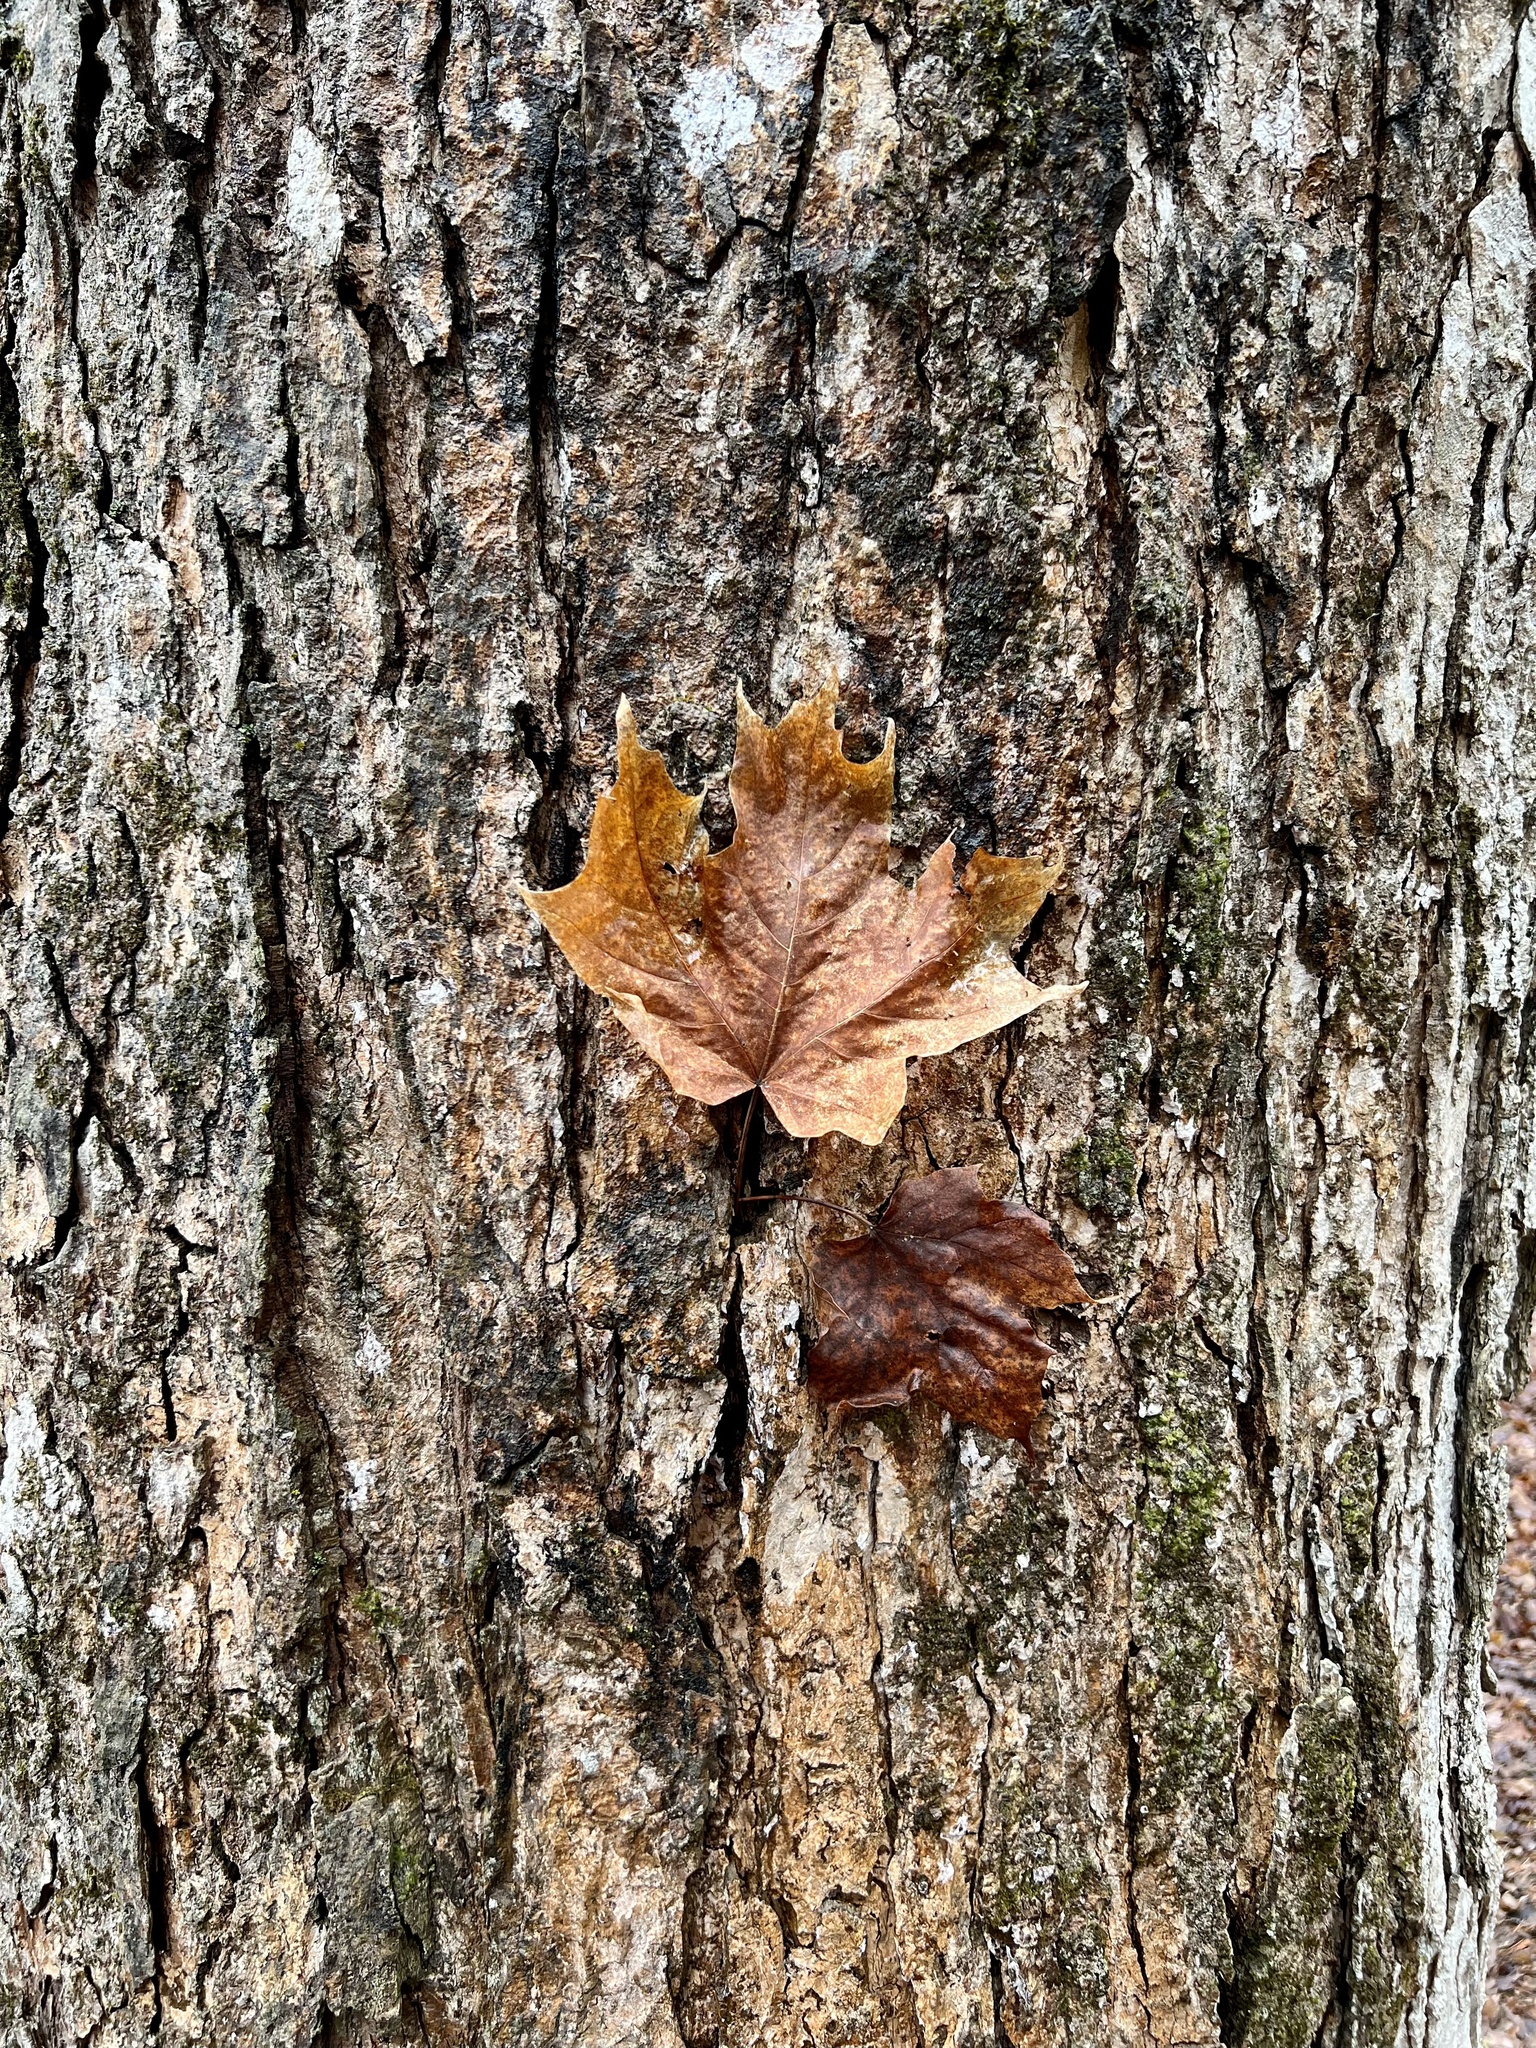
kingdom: Plantae
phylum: Tracheophyta
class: Magnoliopsida
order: Sapindales
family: Sapindaceae
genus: Acer
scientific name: Acer saccharum
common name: Sugar maple
